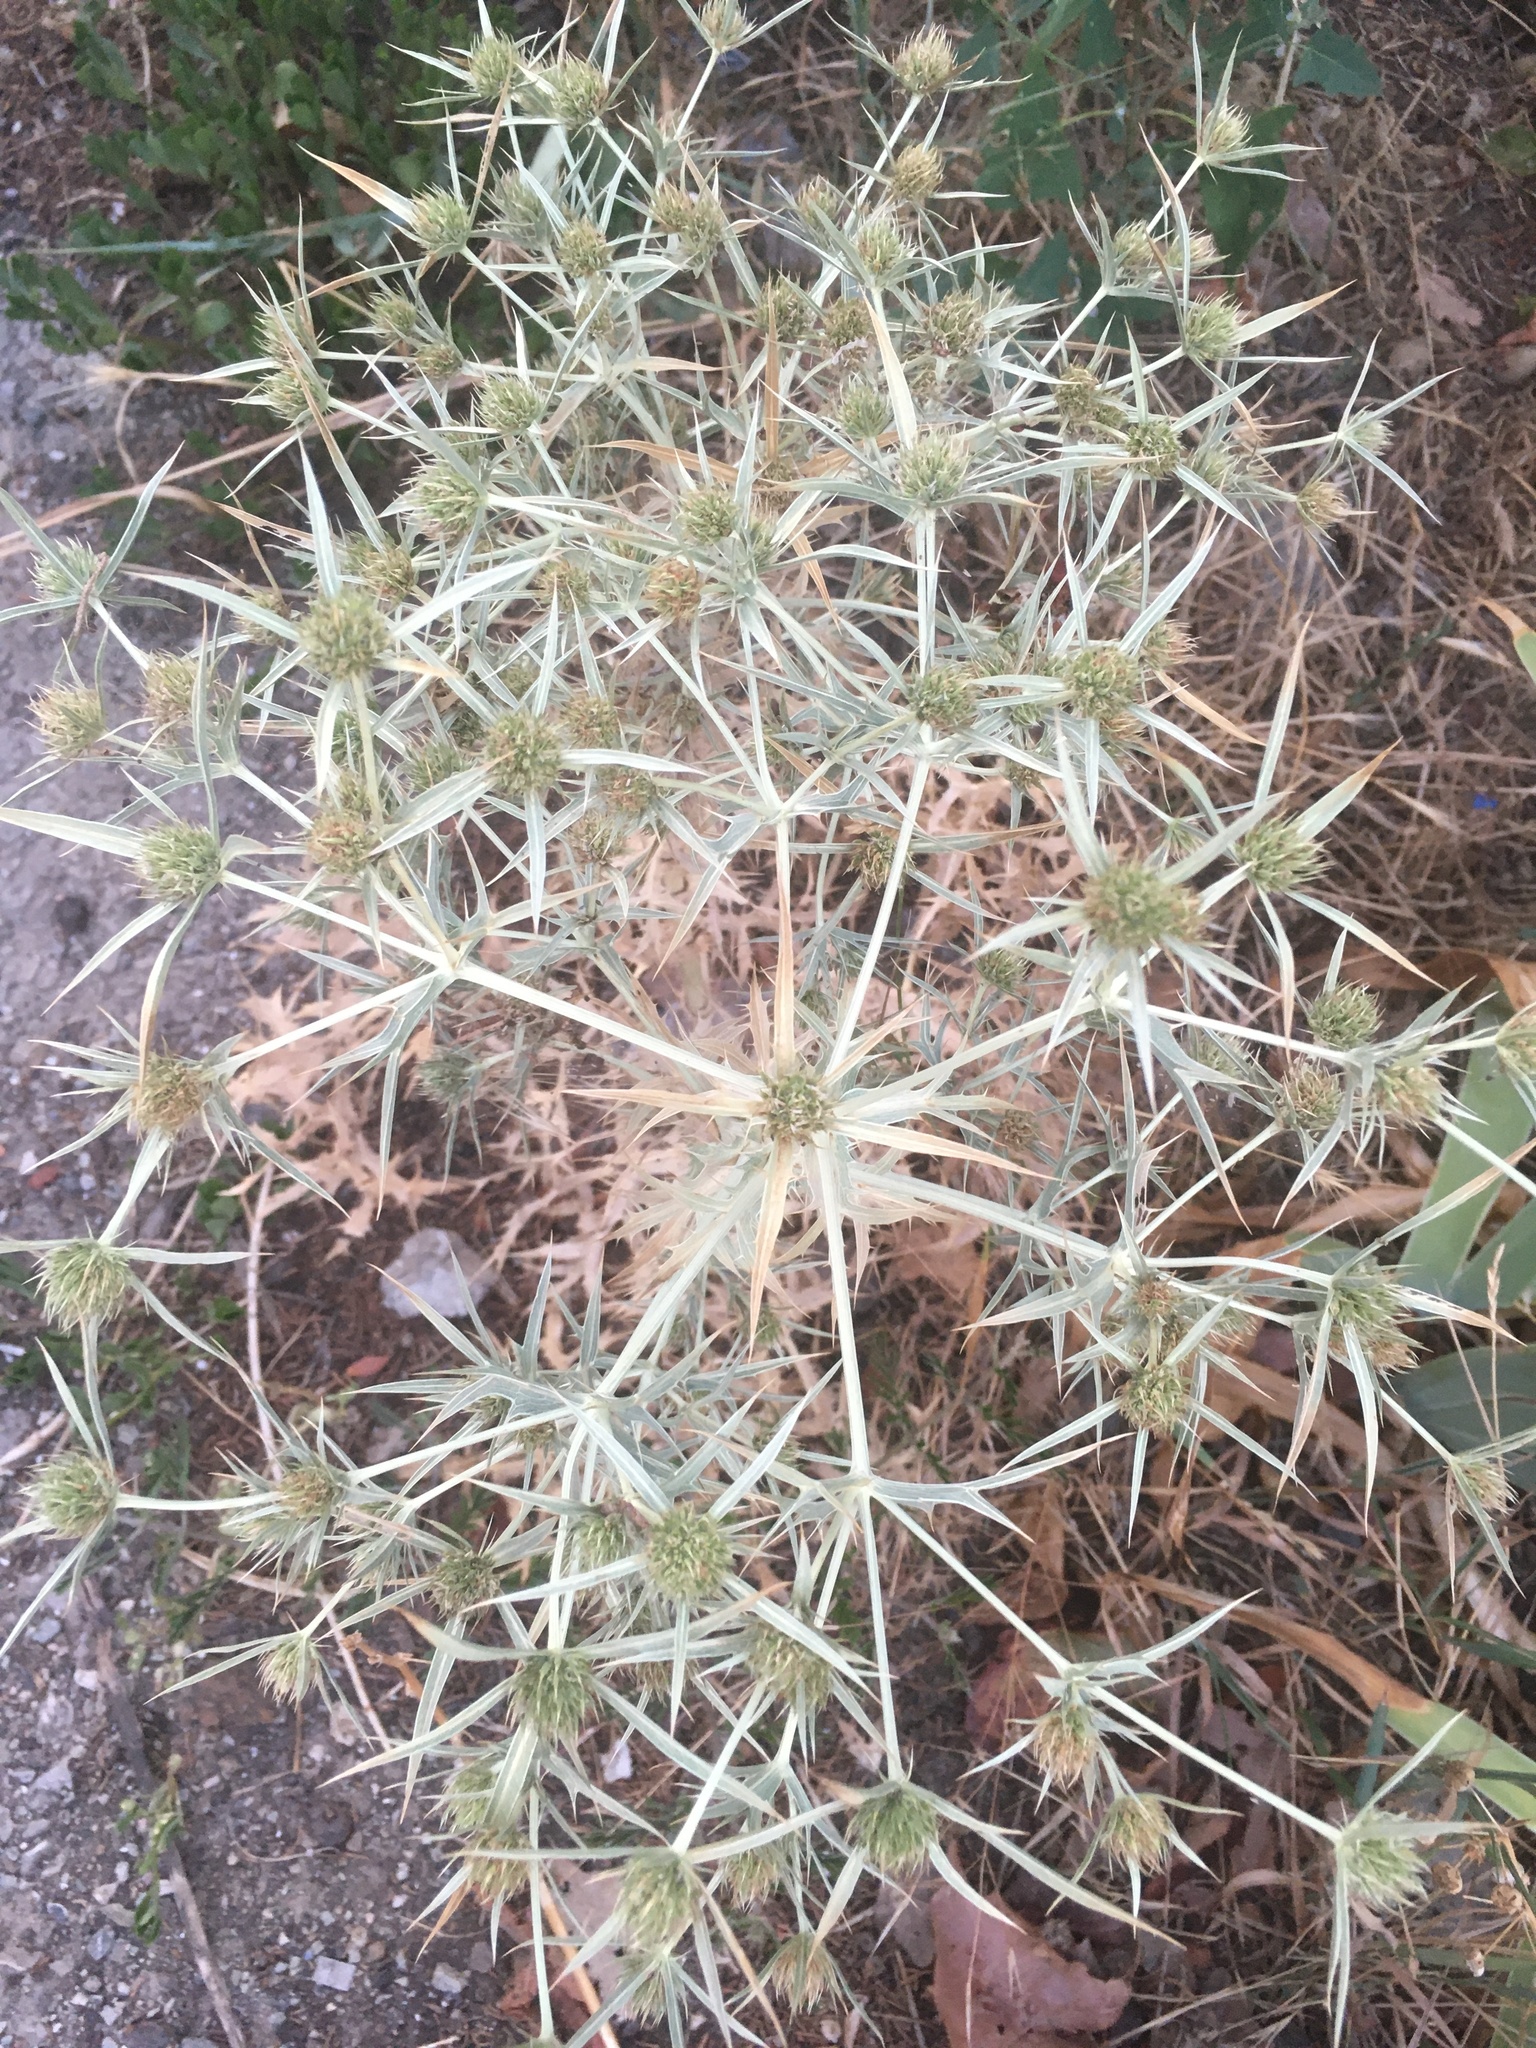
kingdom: Plantae
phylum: Tracheophyta
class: Magnoliopsida
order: Apiales
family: Apiaceae
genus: Eryngium
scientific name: Eryngium campestre
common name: Field eryngo
